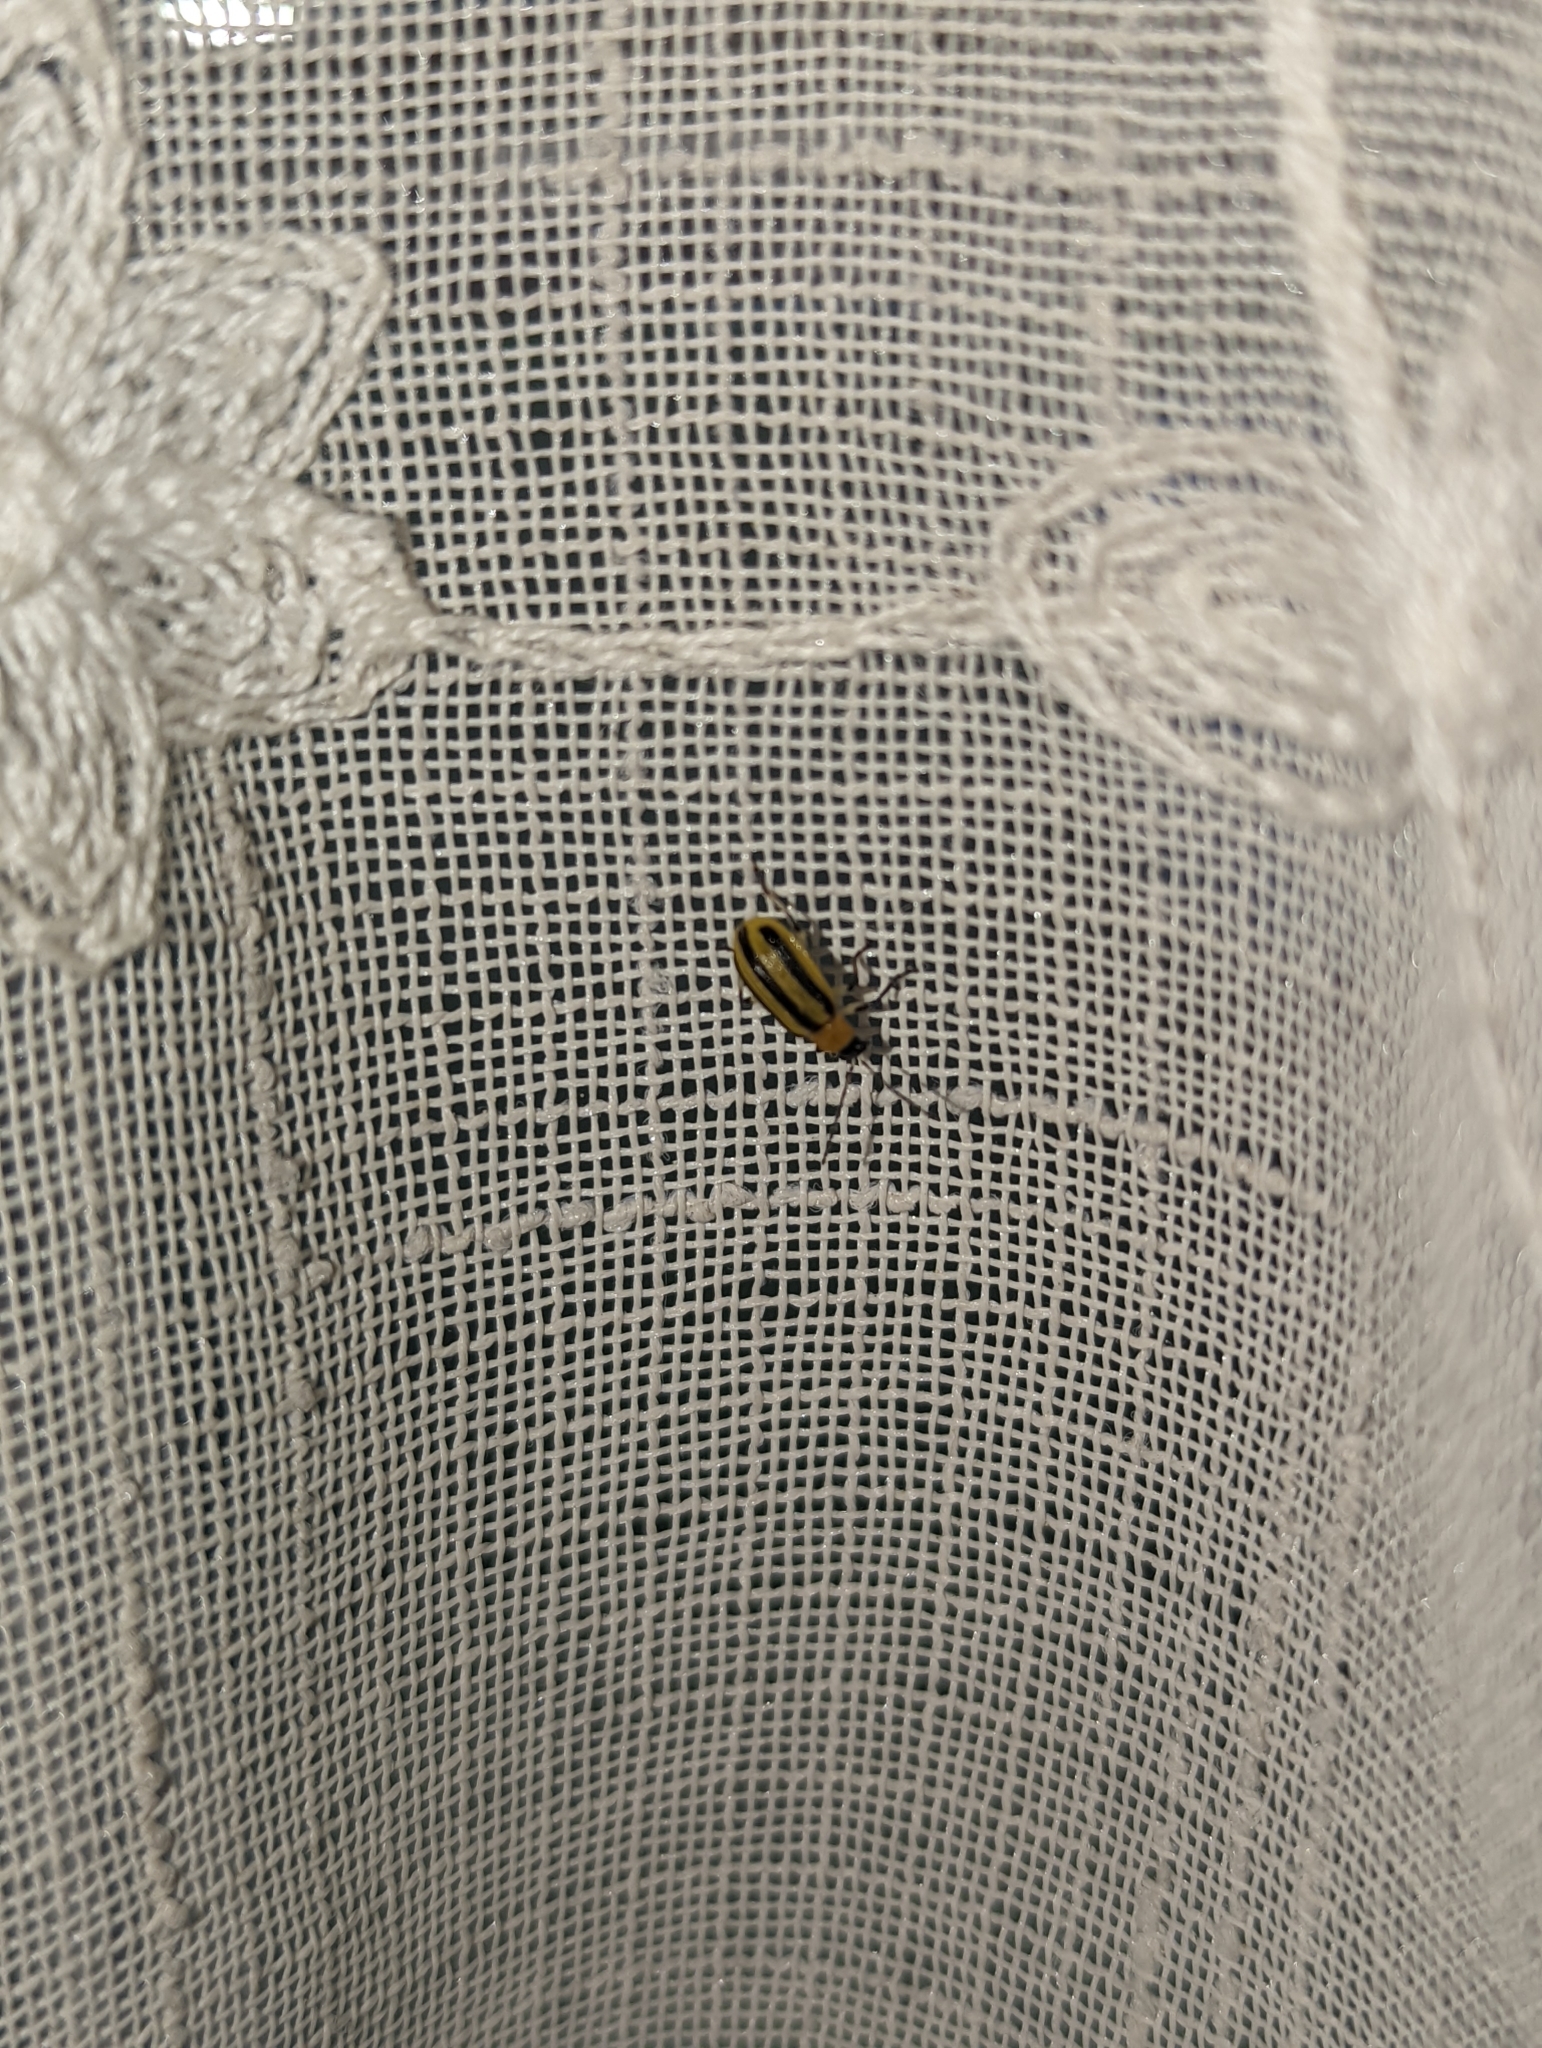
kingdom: Animalia
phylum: Arthropoda
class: Insecta
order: Coleoptera
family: Chrysomelidae
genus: Acalymma
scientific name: Acalymma vittatum
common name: Striped cucumber beetle
